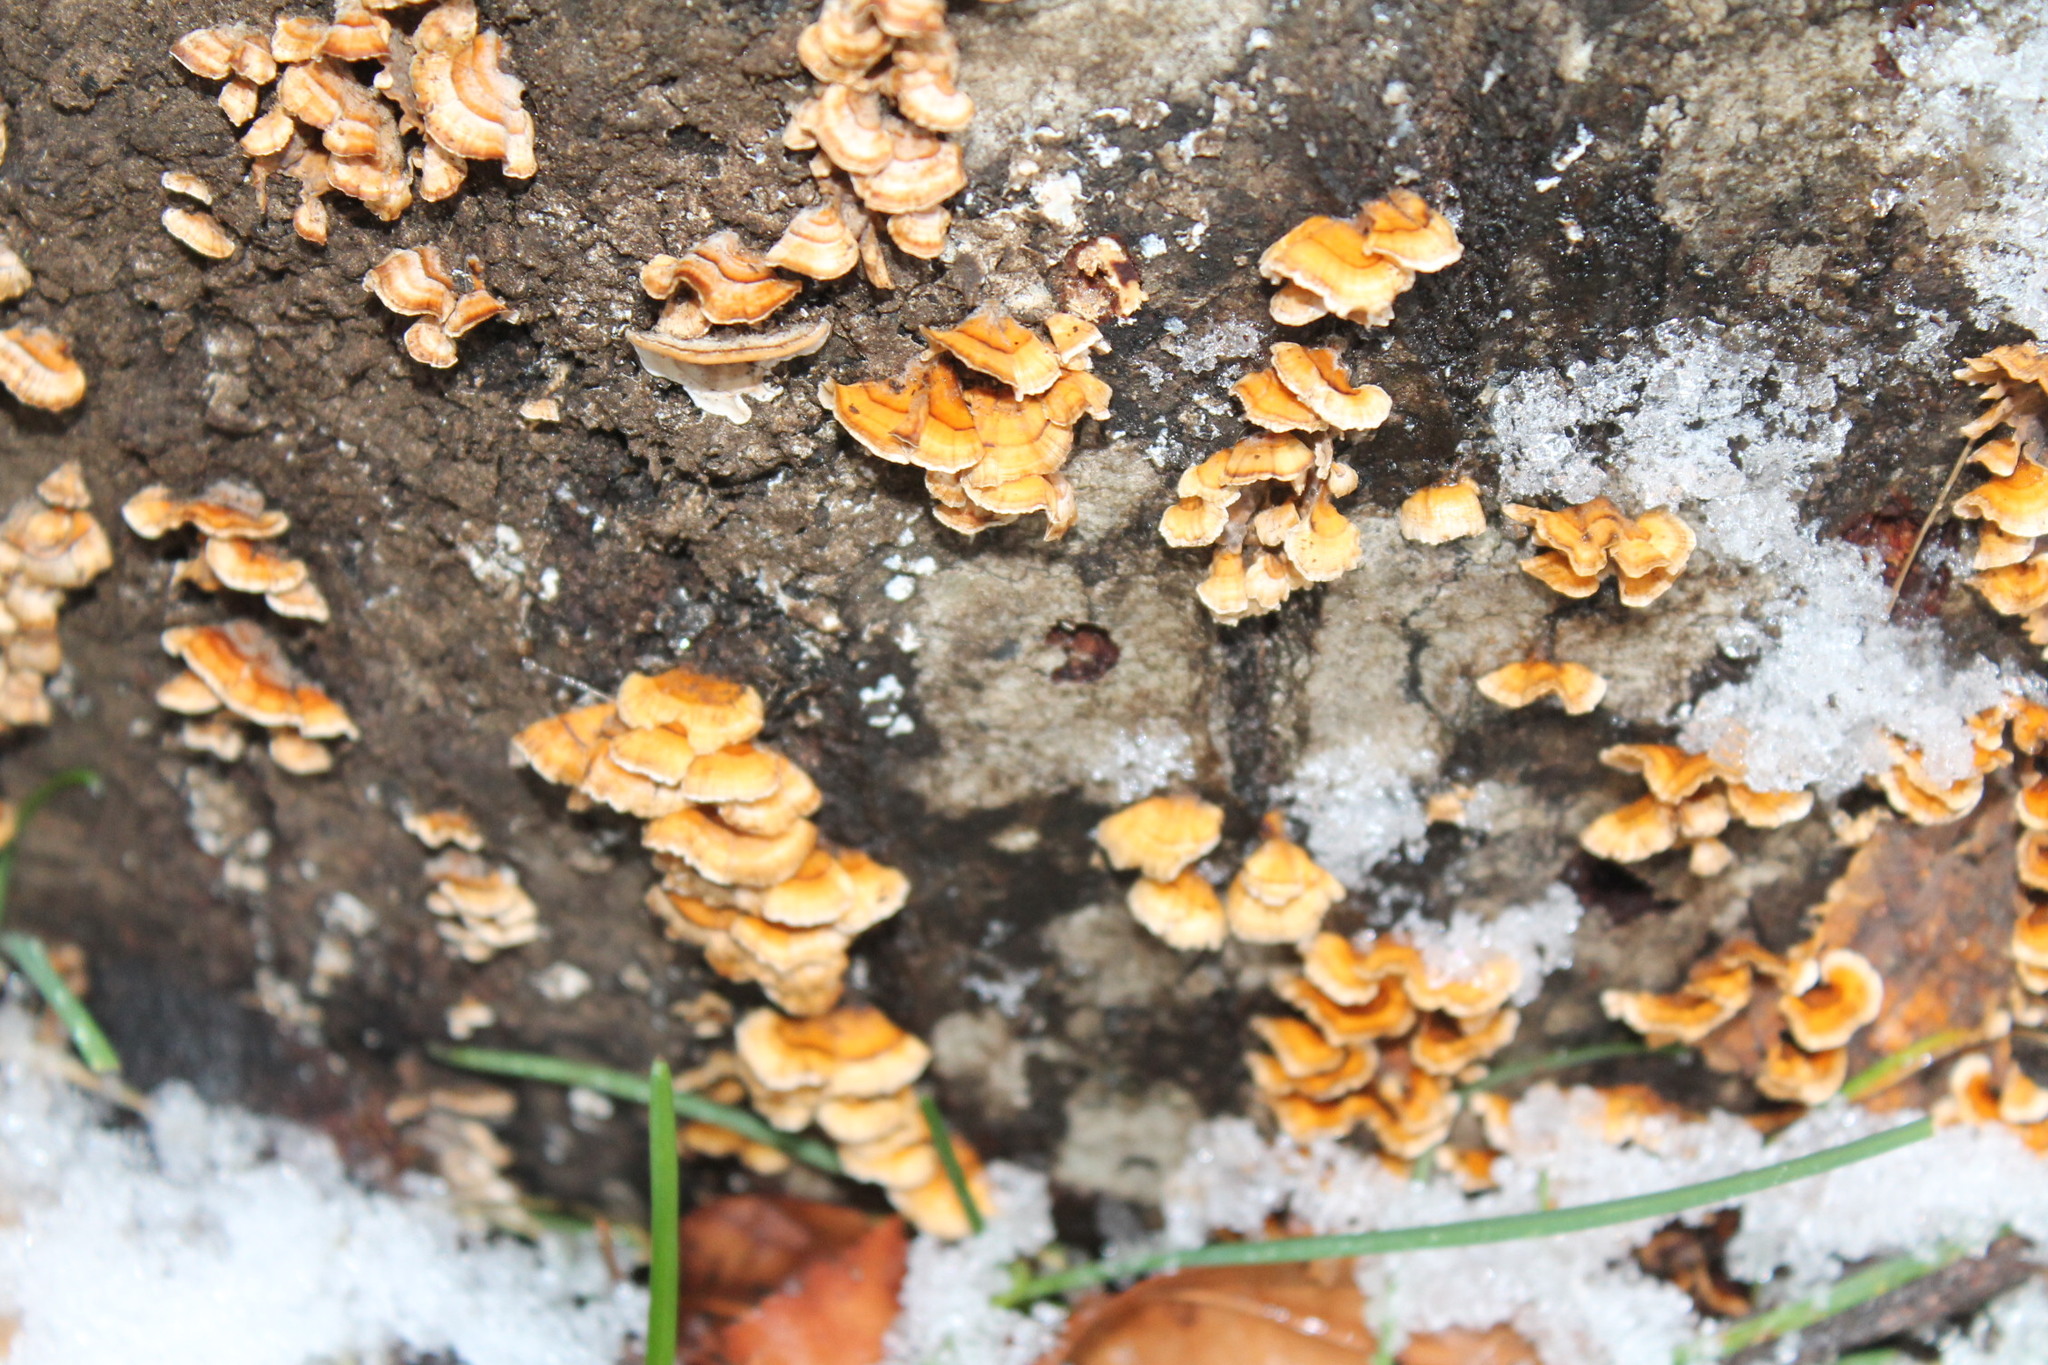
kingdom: Fungi
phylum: Basidiomycota
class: Agaricomycetes
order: Russulales
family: Stereaceae
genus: Stereum
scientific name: Stereum complicatum
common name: Crowded parchment
